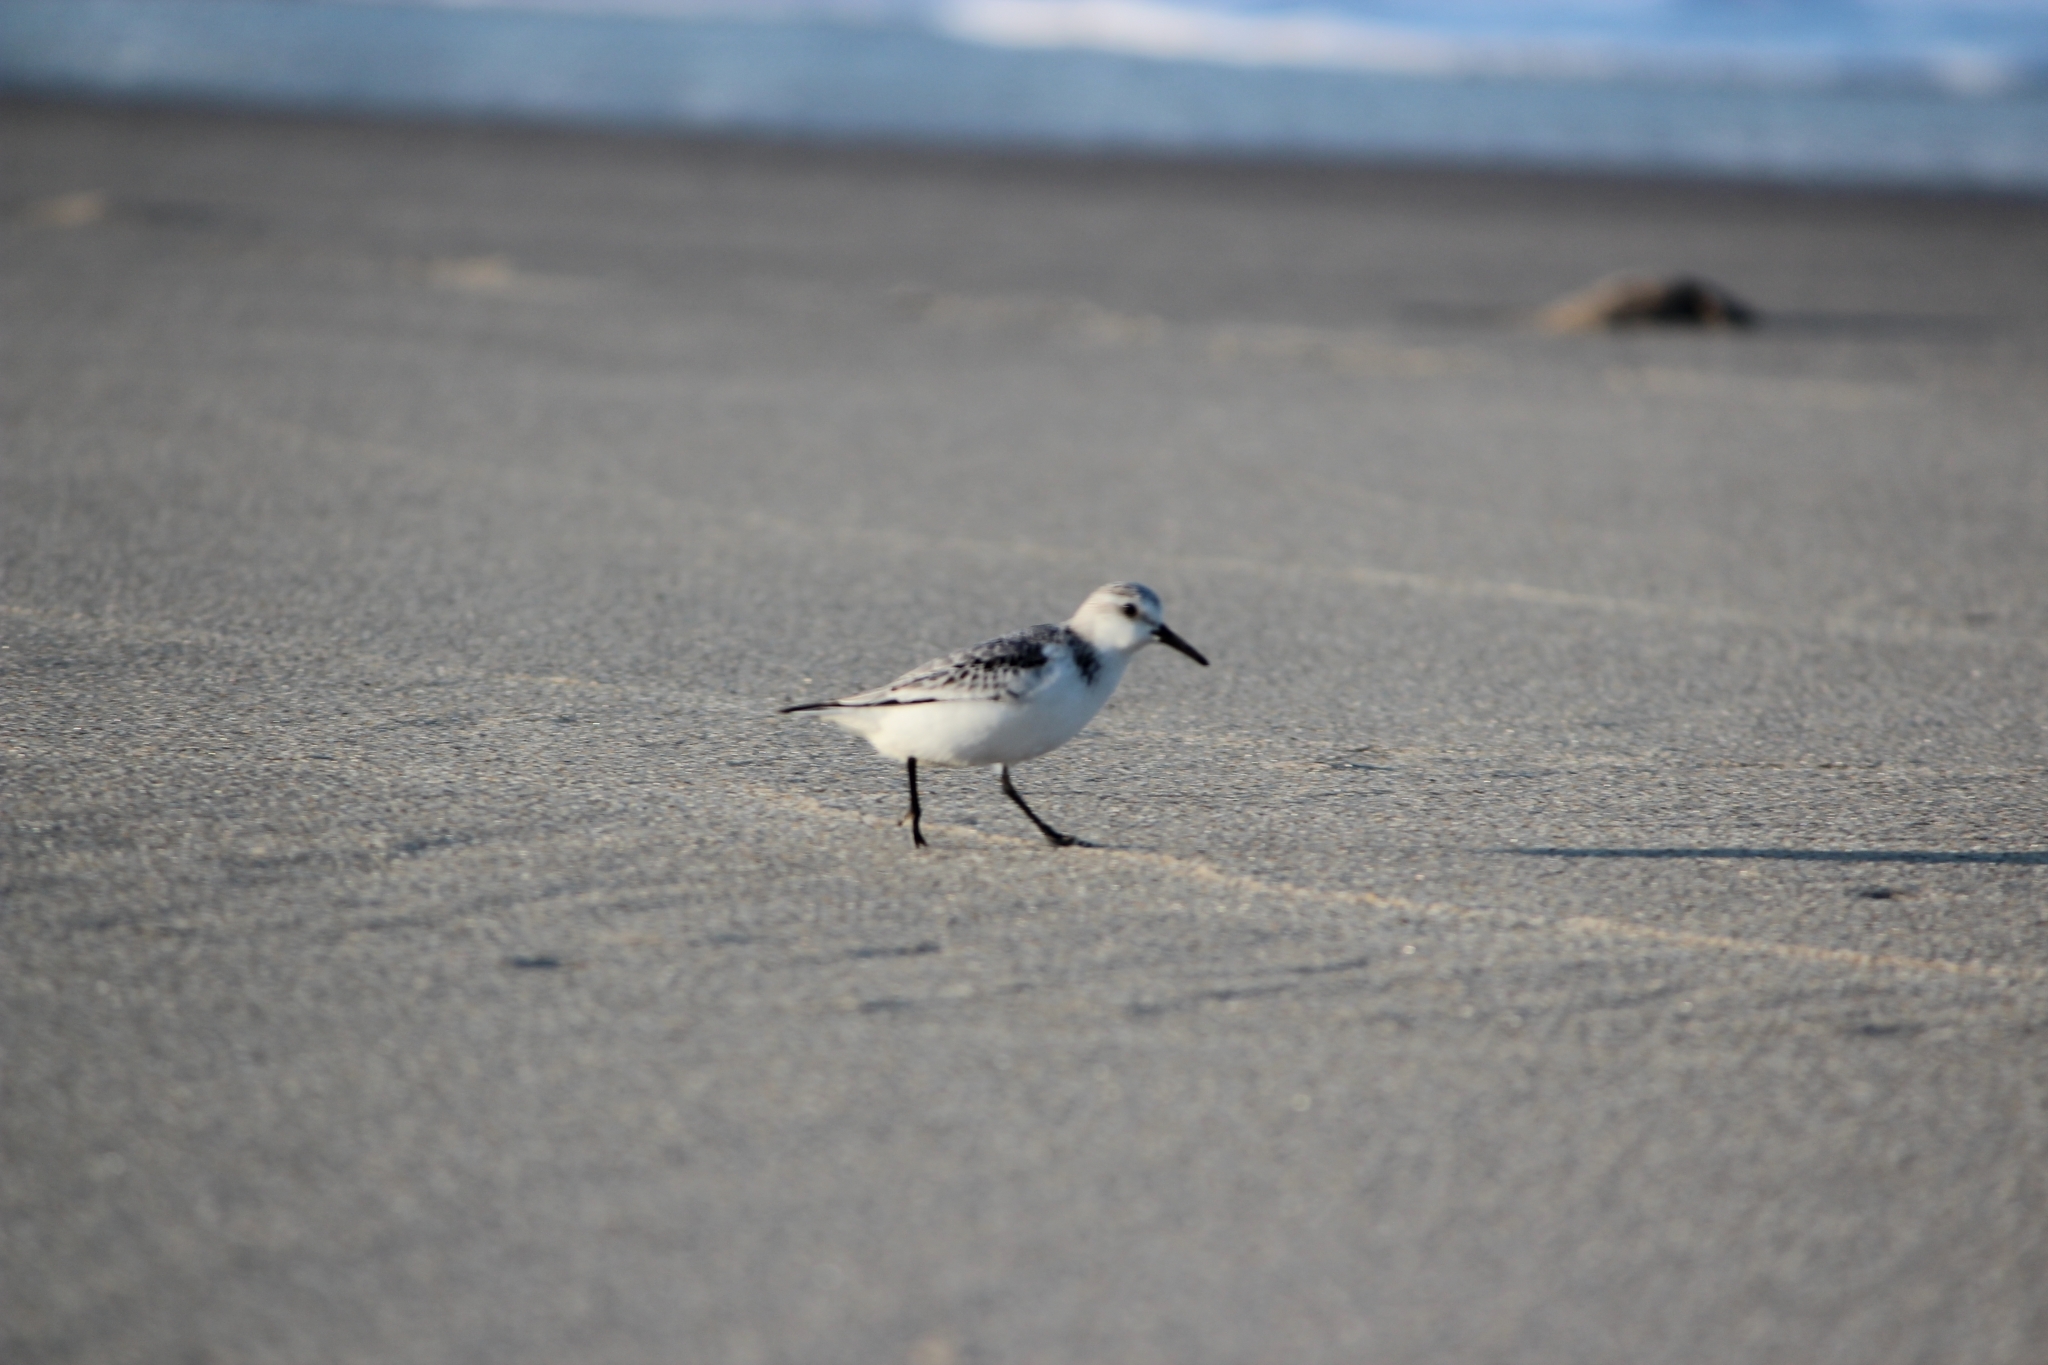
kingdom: Animalia
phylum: Chordata
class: Aves
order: Charadriiformes
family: Scolopacidae
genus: Calidris
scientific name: Calidris alba
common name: Sanderling
